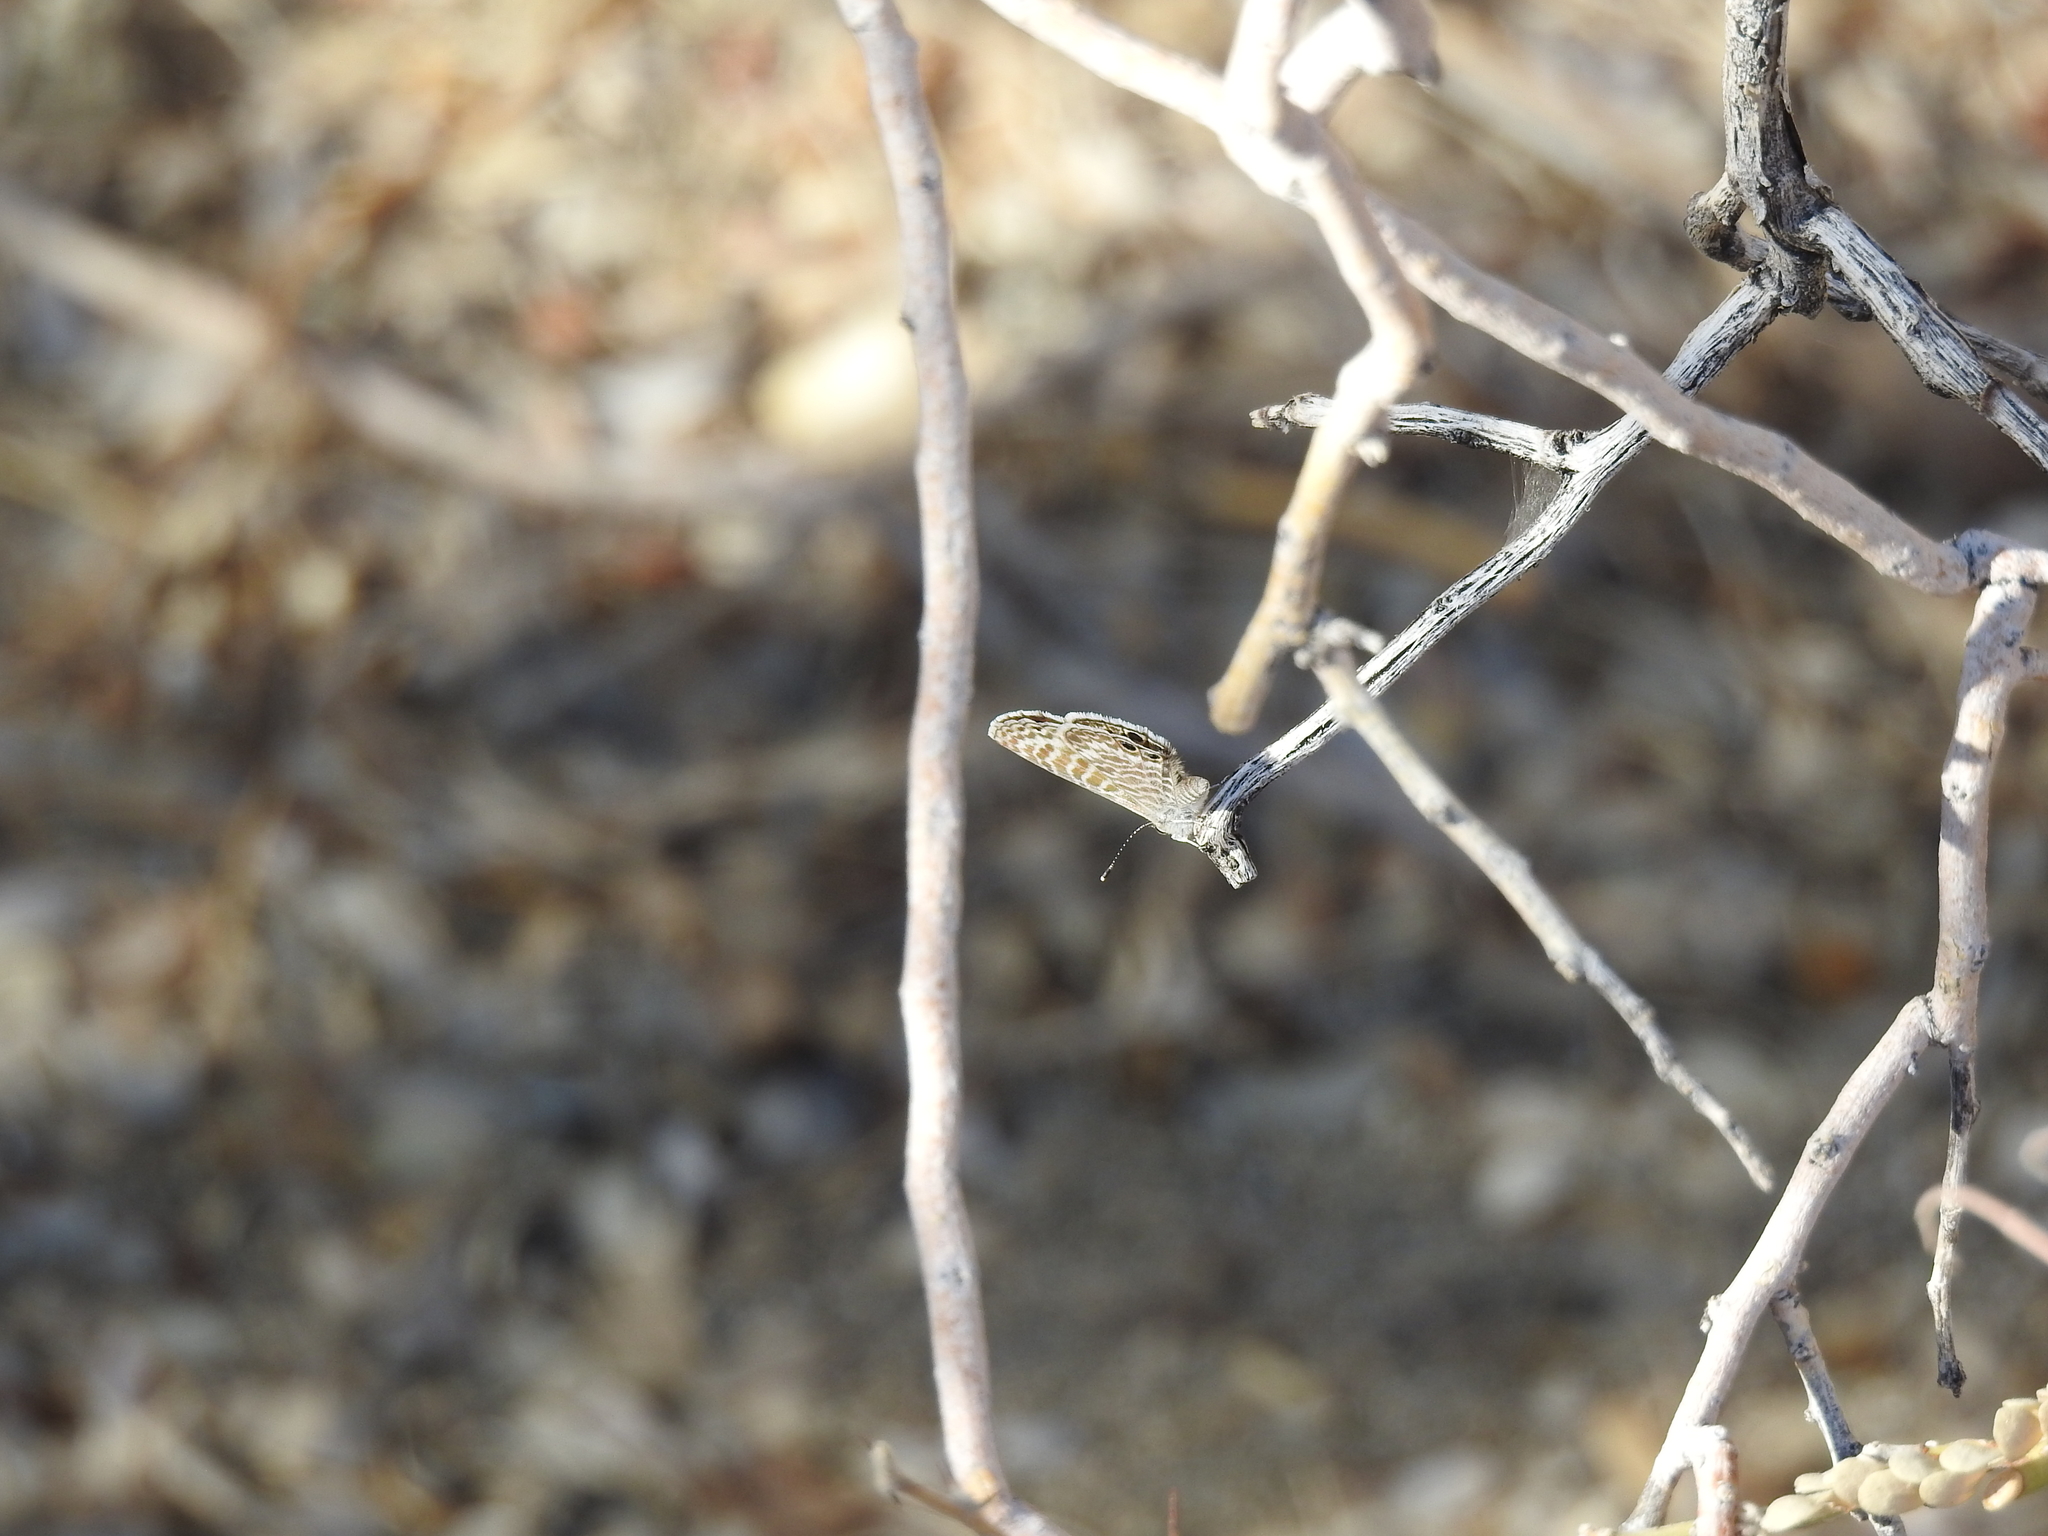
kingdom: Animalia
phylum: Arthropoda
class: Insecta
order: Lepidoptera
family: Lycaenidae
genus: Leptotes
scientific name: Leptotes marina
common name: Marine blue
